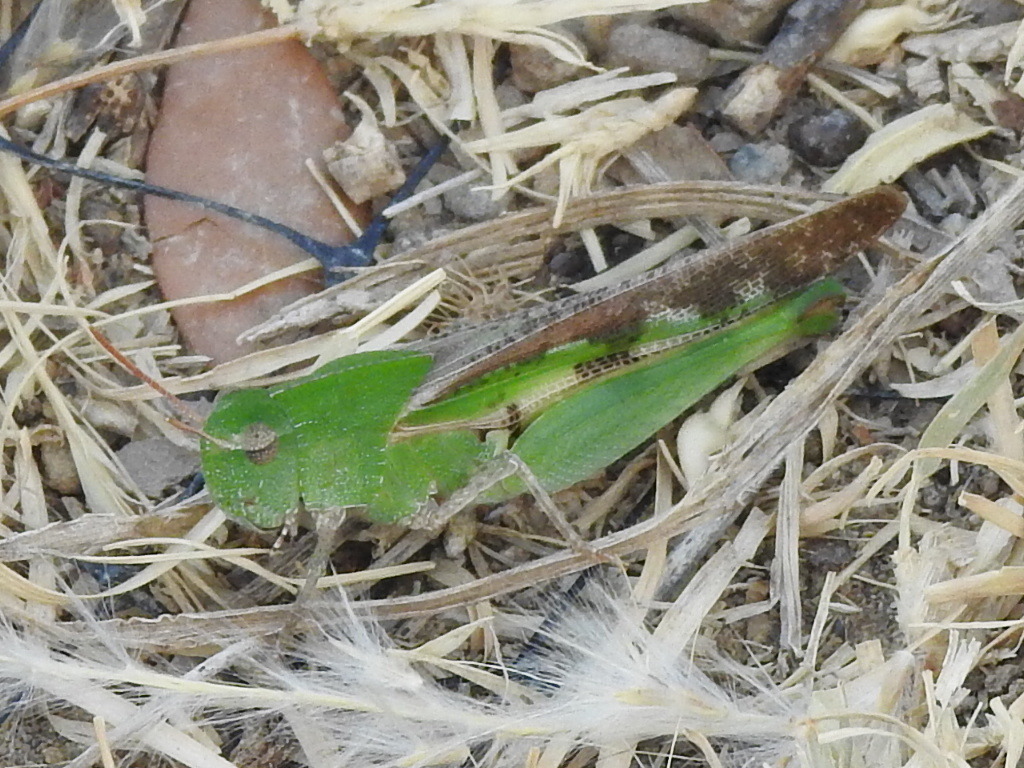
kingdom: Animalia
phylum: Arthropoda
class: Insecta
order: Orthoptera
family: Acrididae
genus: Chortophaga
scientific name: Chortophaga viridifasciata
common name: Green-striped grasshopper
